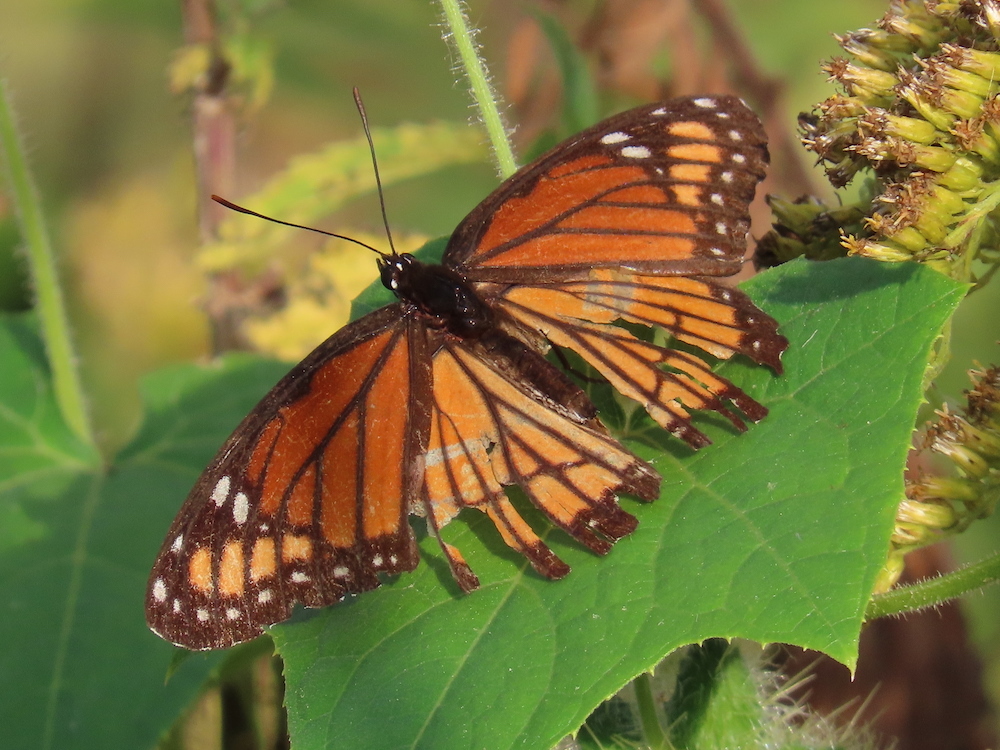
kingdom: Animalia
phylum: Arthropoda
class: Insecta
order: Lepidoptera
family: Nymphalidae
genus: Limenitis
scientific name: Limenitis archippus
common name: Viceroy
